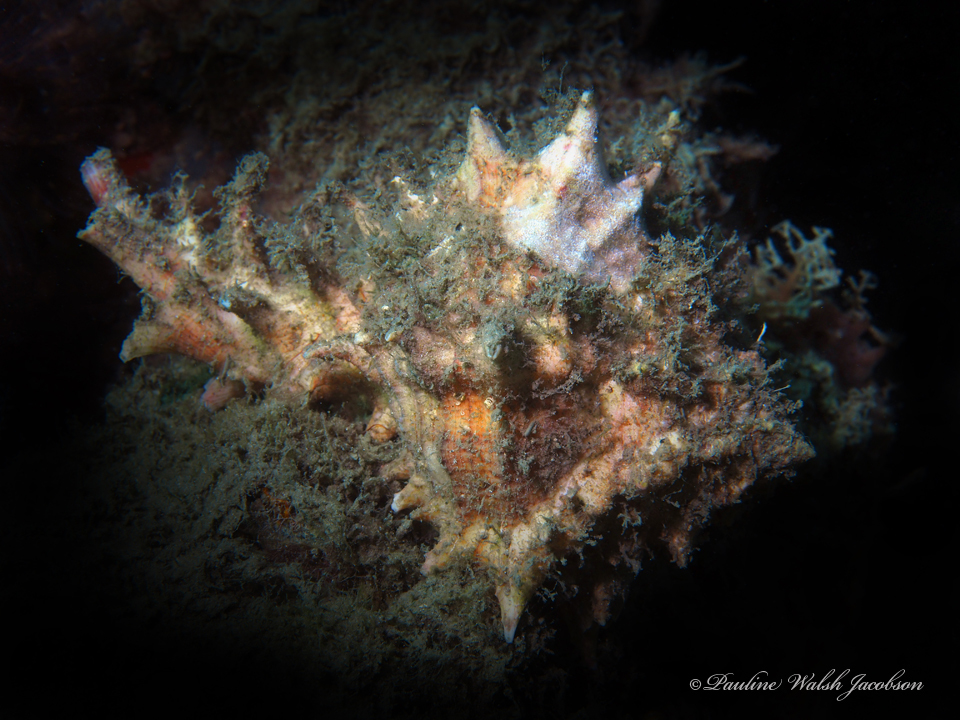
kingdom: Animalia
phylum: Mollusca
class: Gastropoda
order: Neogastropoda
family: Muricidae
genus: Hexaplex
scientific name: Hexaplex fulvescens
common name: Tawny murex
